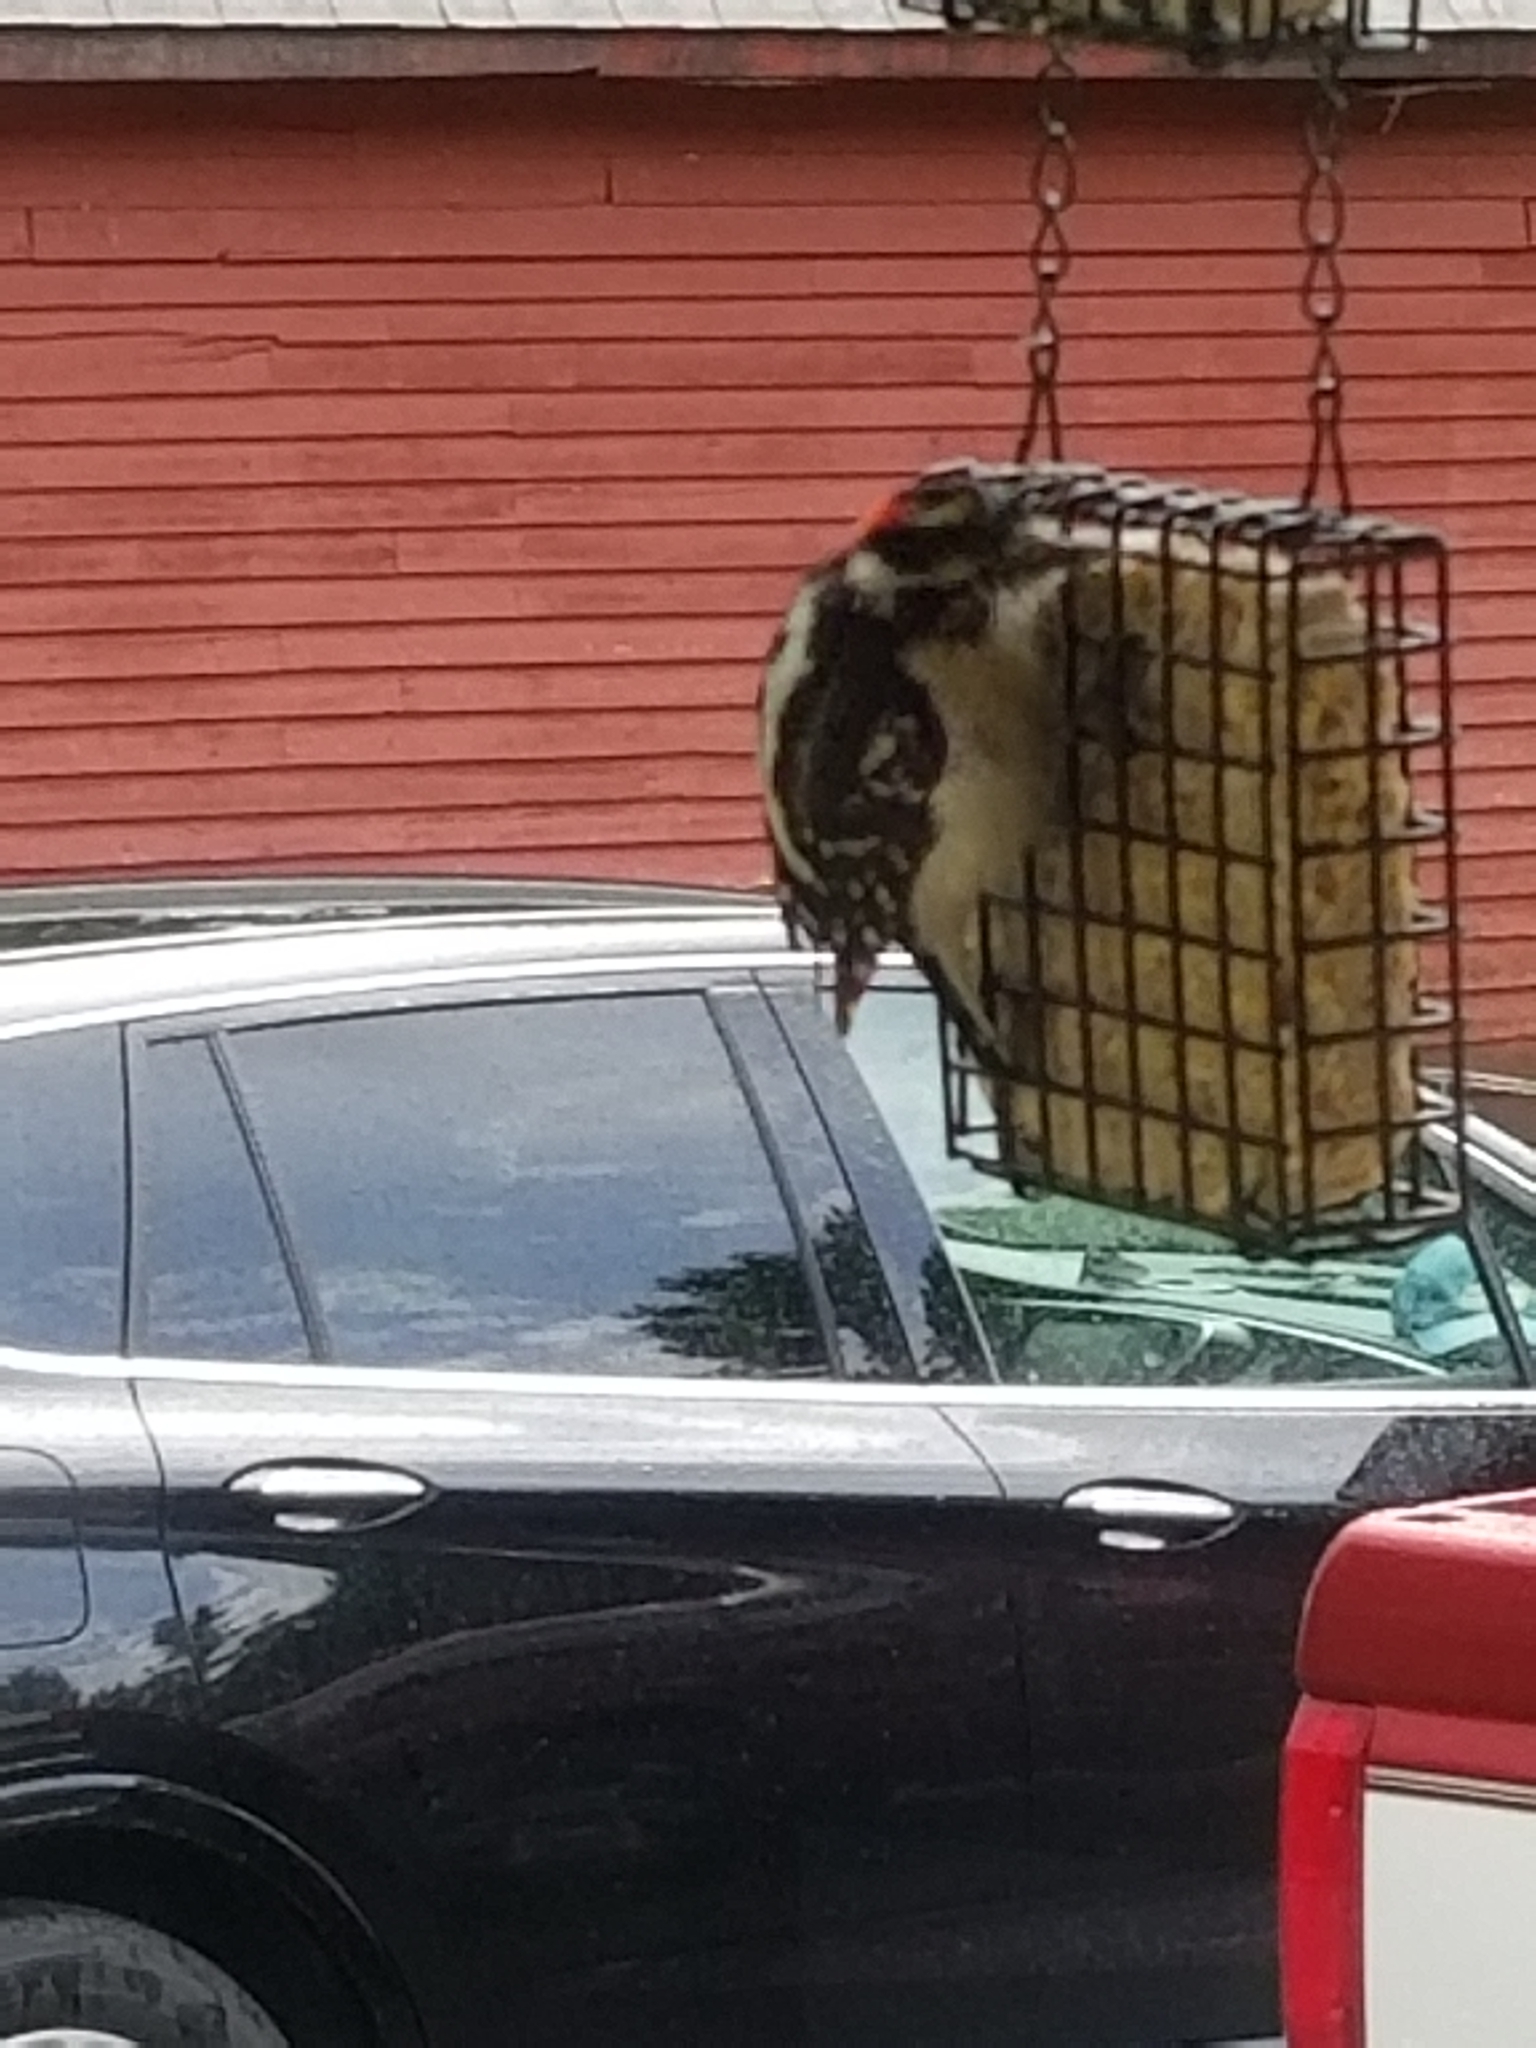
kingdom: Animalia
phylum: Chordata
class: Aves
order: Piciformes
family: Picidae
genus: Dryobates
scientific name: Dryobates pubescens
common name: Downy woodpecker
